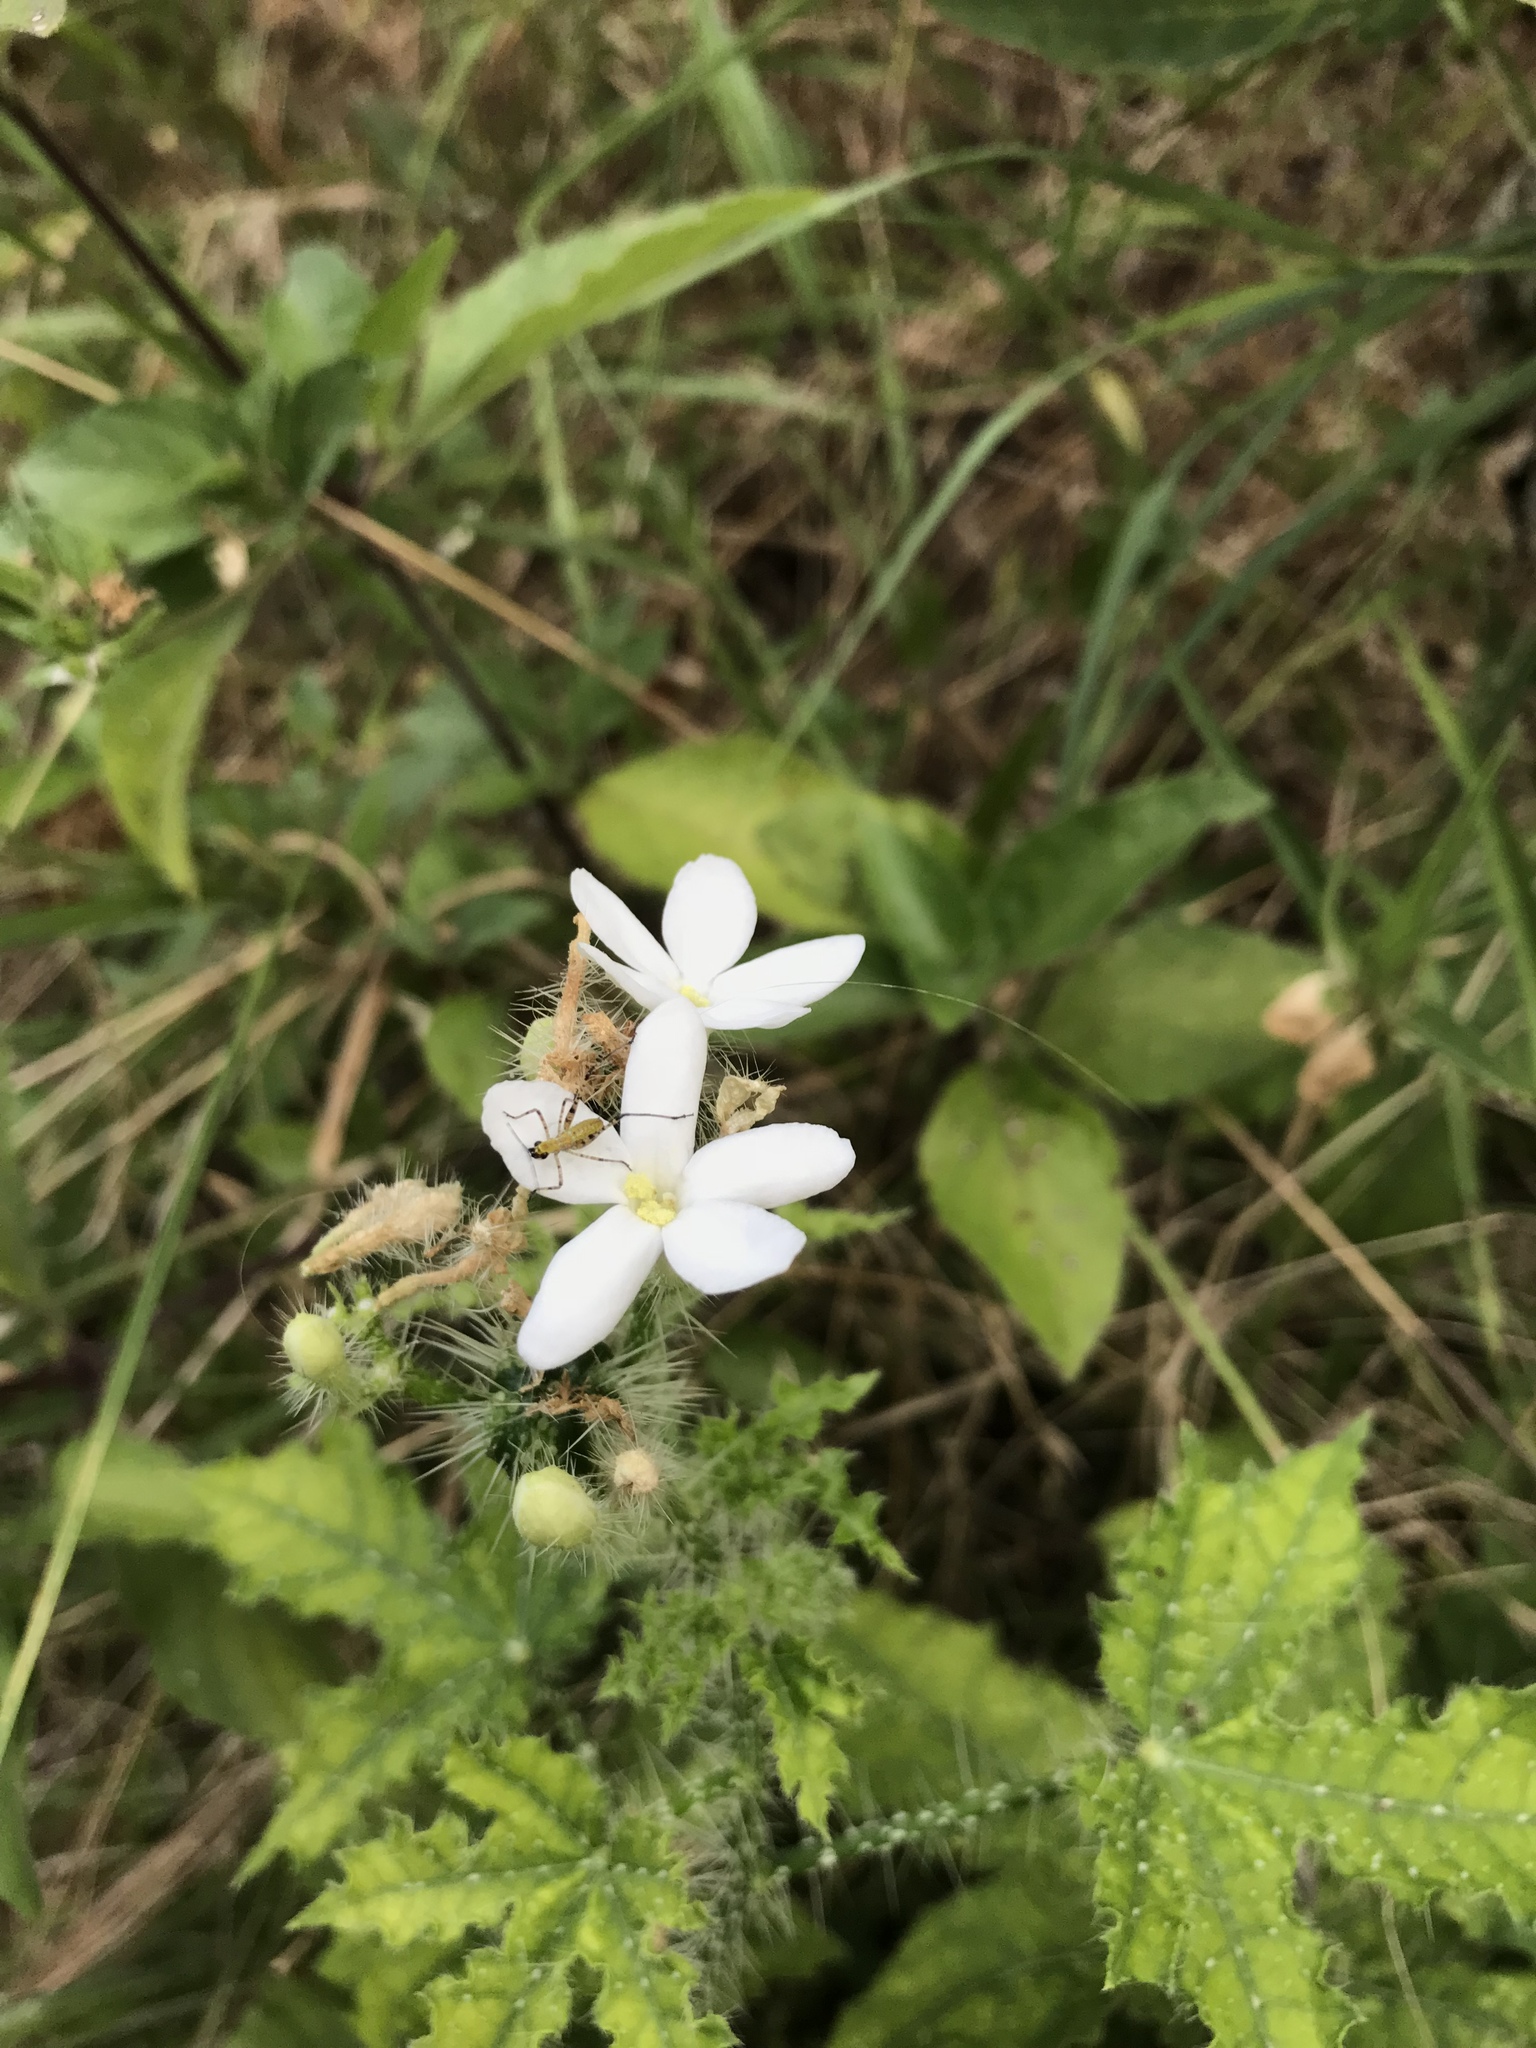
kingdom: Plantae
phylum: Tracheophyta
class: Magnoliopsida
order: Malpighiales
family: Euphorbiaceae
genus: Cnidoscolus
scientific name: Cnidoscolus texanus
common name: Texas bull-nettle
